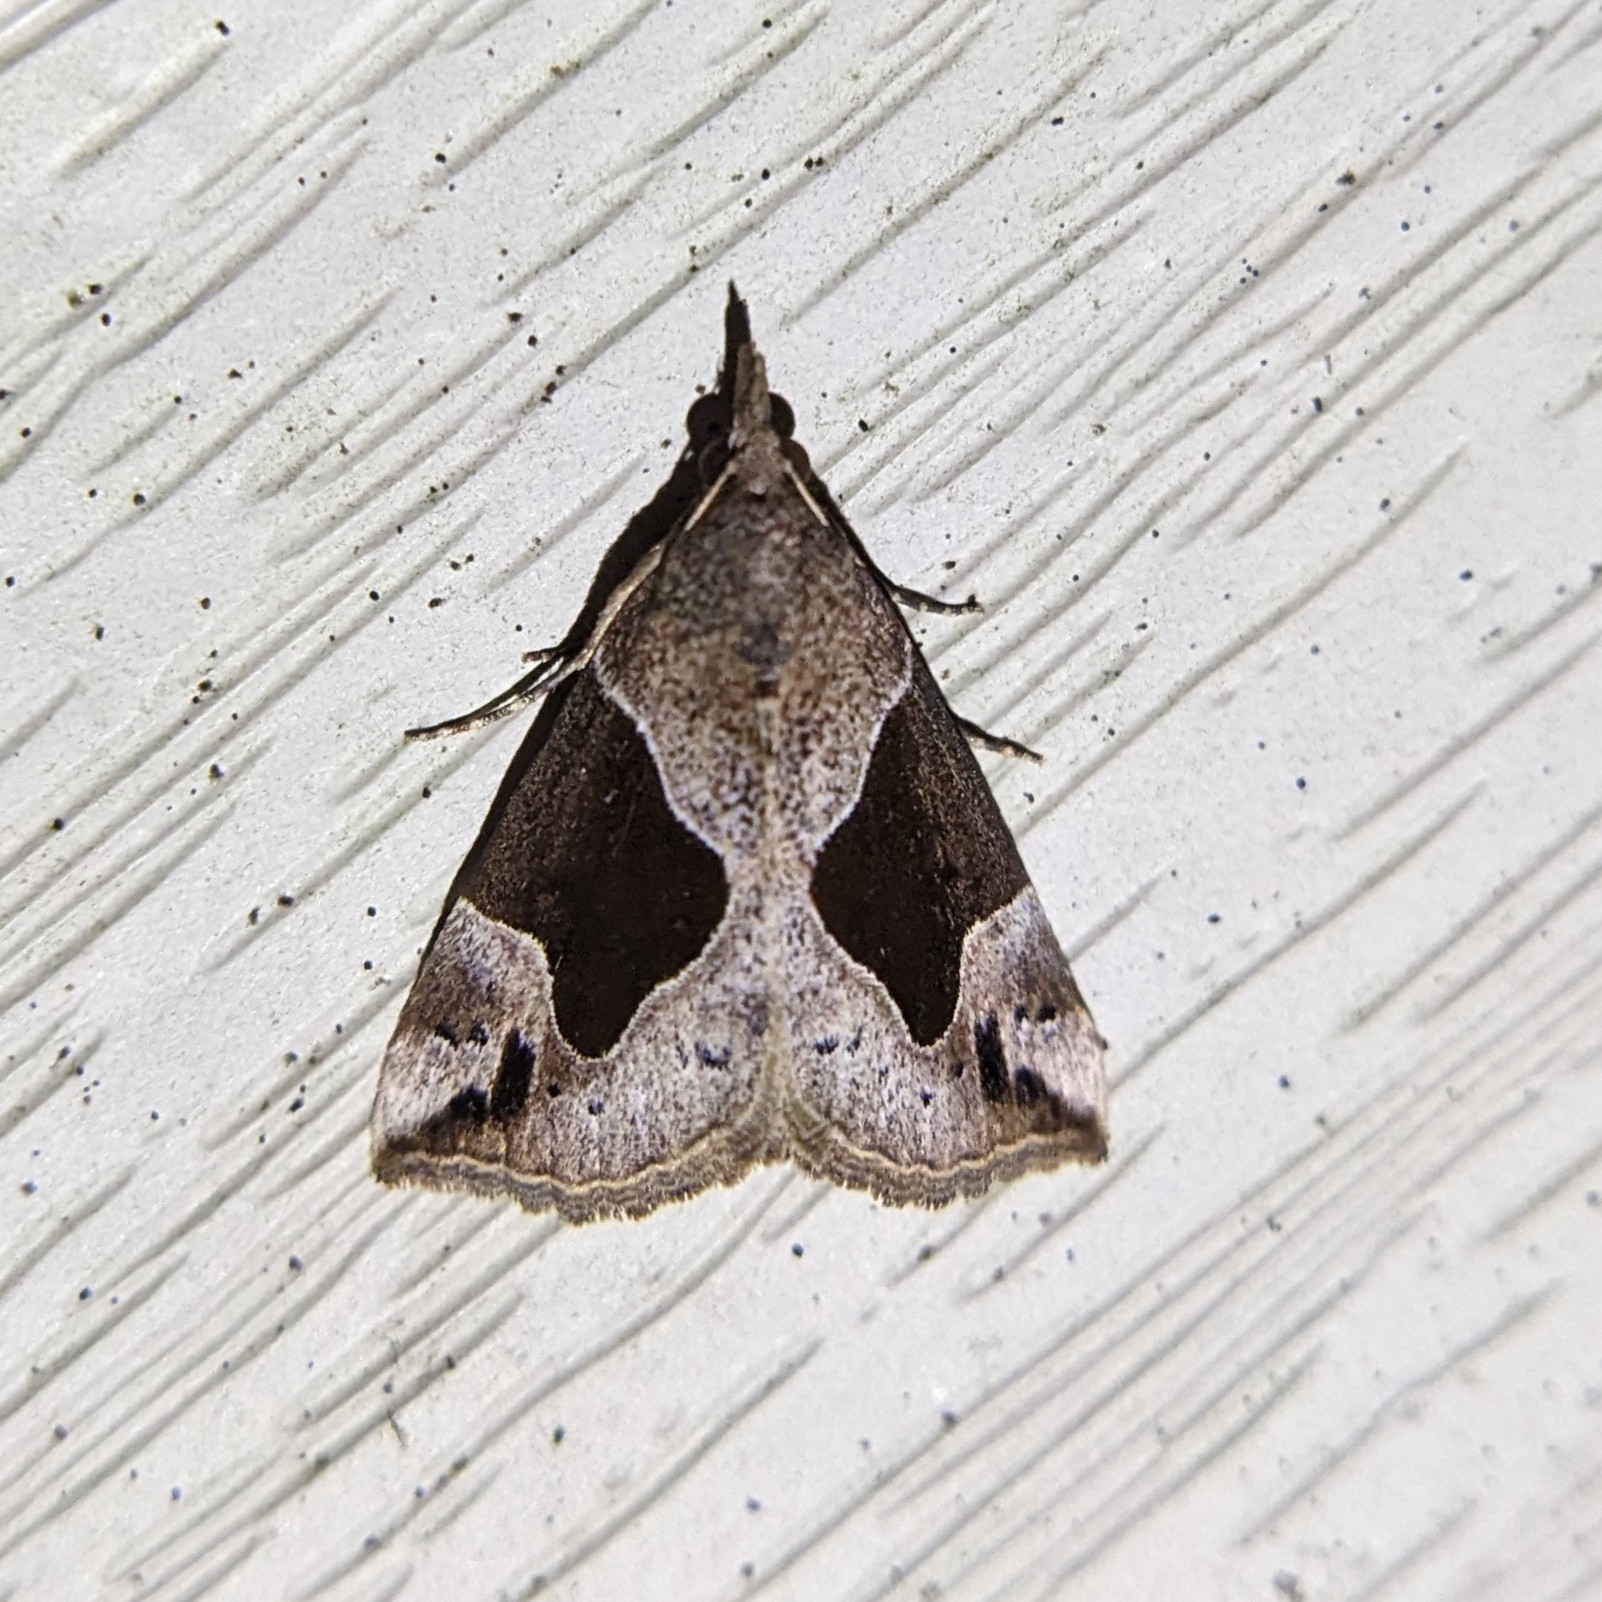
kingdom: Animalia
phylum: Arthropoda
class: Insecta
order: Lepidoptera
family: Erebidae
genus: Hypena
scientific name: Hypena manalis
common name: Flowing-line bomolocha moth
